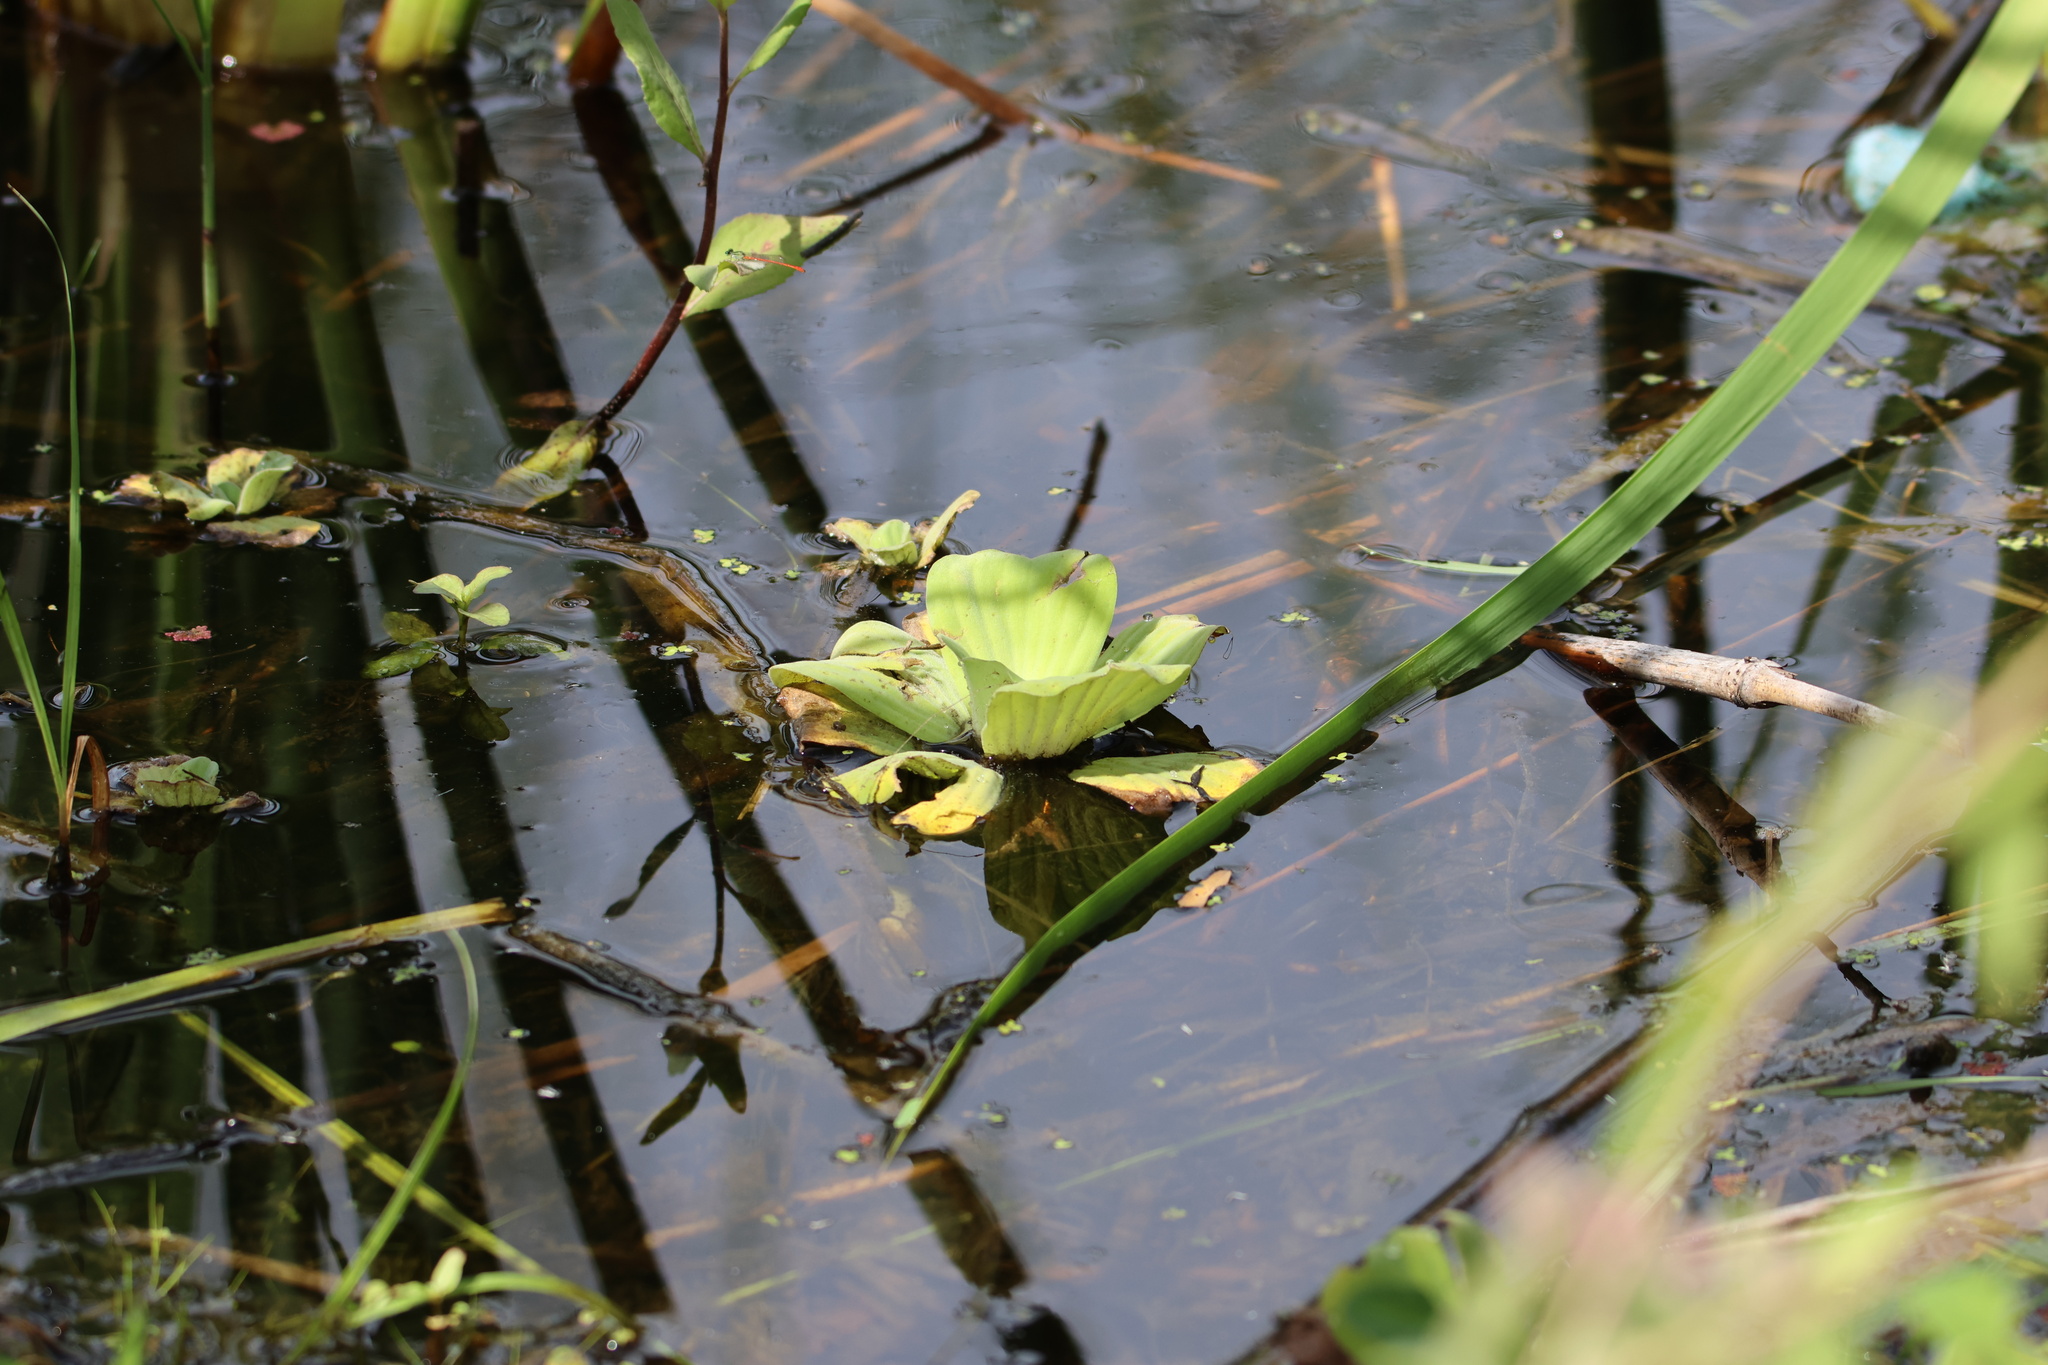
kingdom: Plantae
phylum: Tracheophyta
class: Liliopsida
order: Alismatales
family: Araceae
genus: Pistia
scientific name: Pistia stratiotes
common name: Water lettuce
